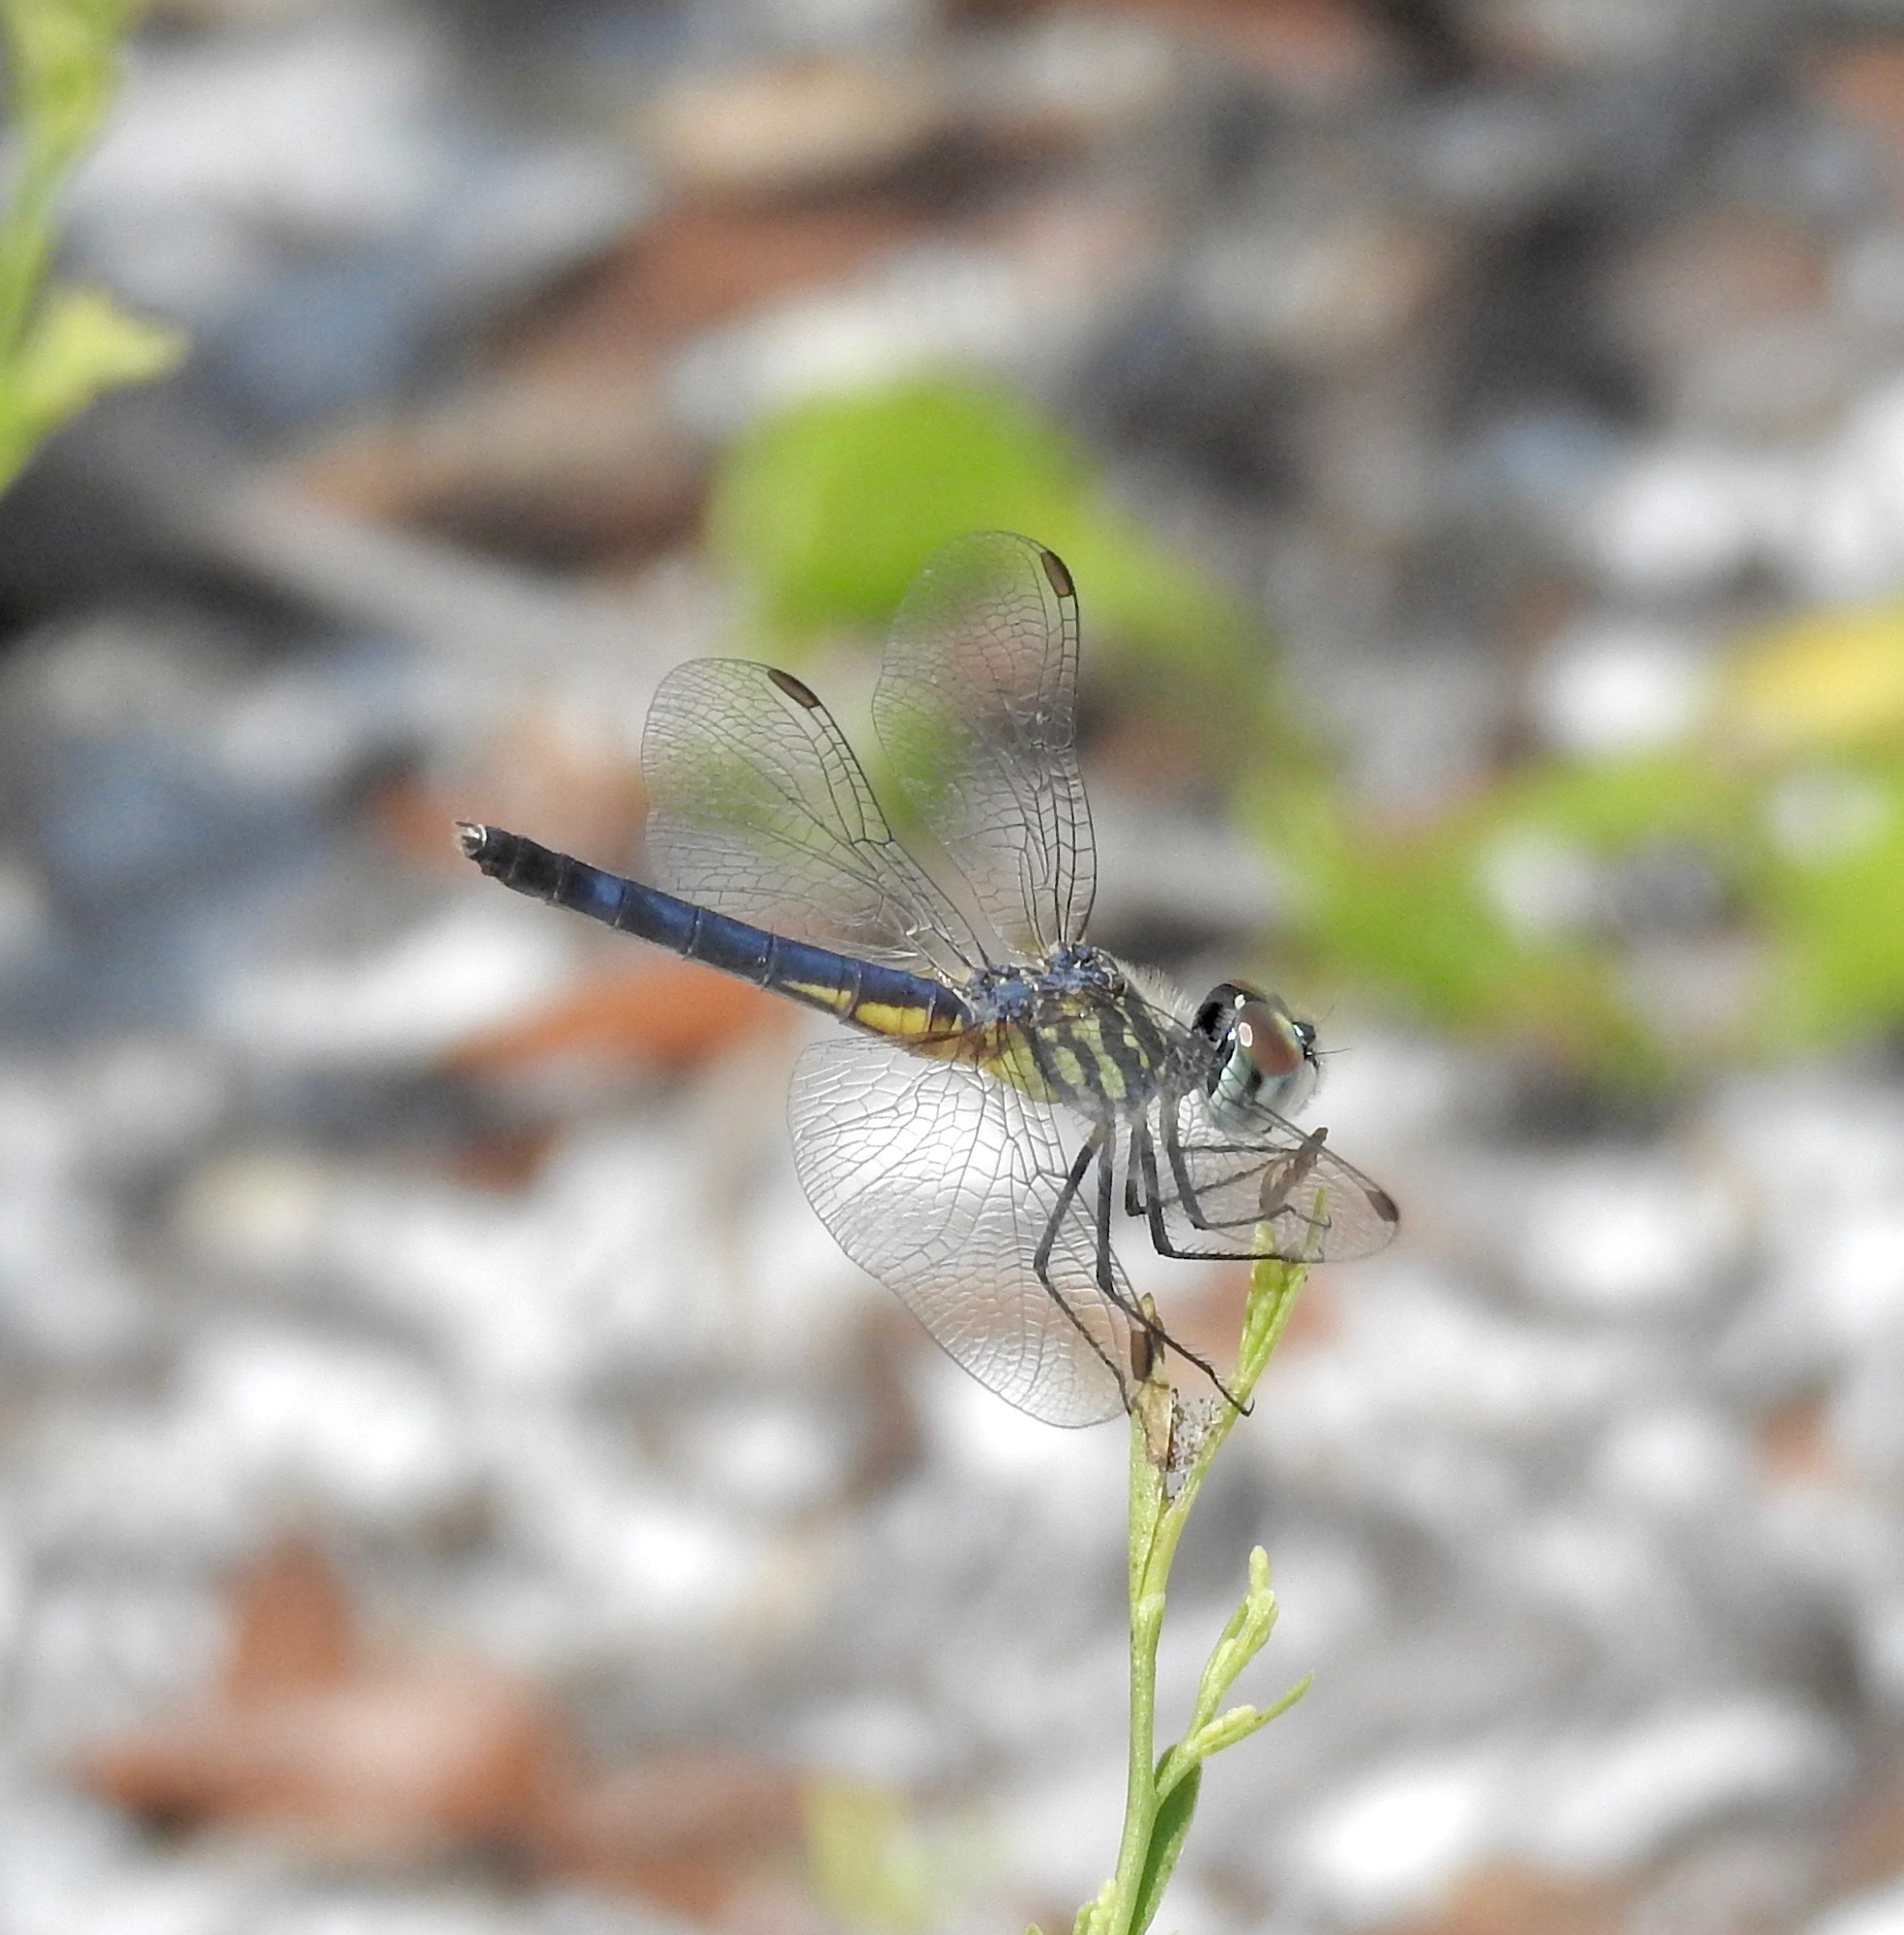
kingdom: Animalia
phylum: Arthropoda
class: Insecta
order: Odonata
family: Libellulidae
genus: Pachydiplax
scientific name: Pachydiplax longipennis
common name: Blue dasher
